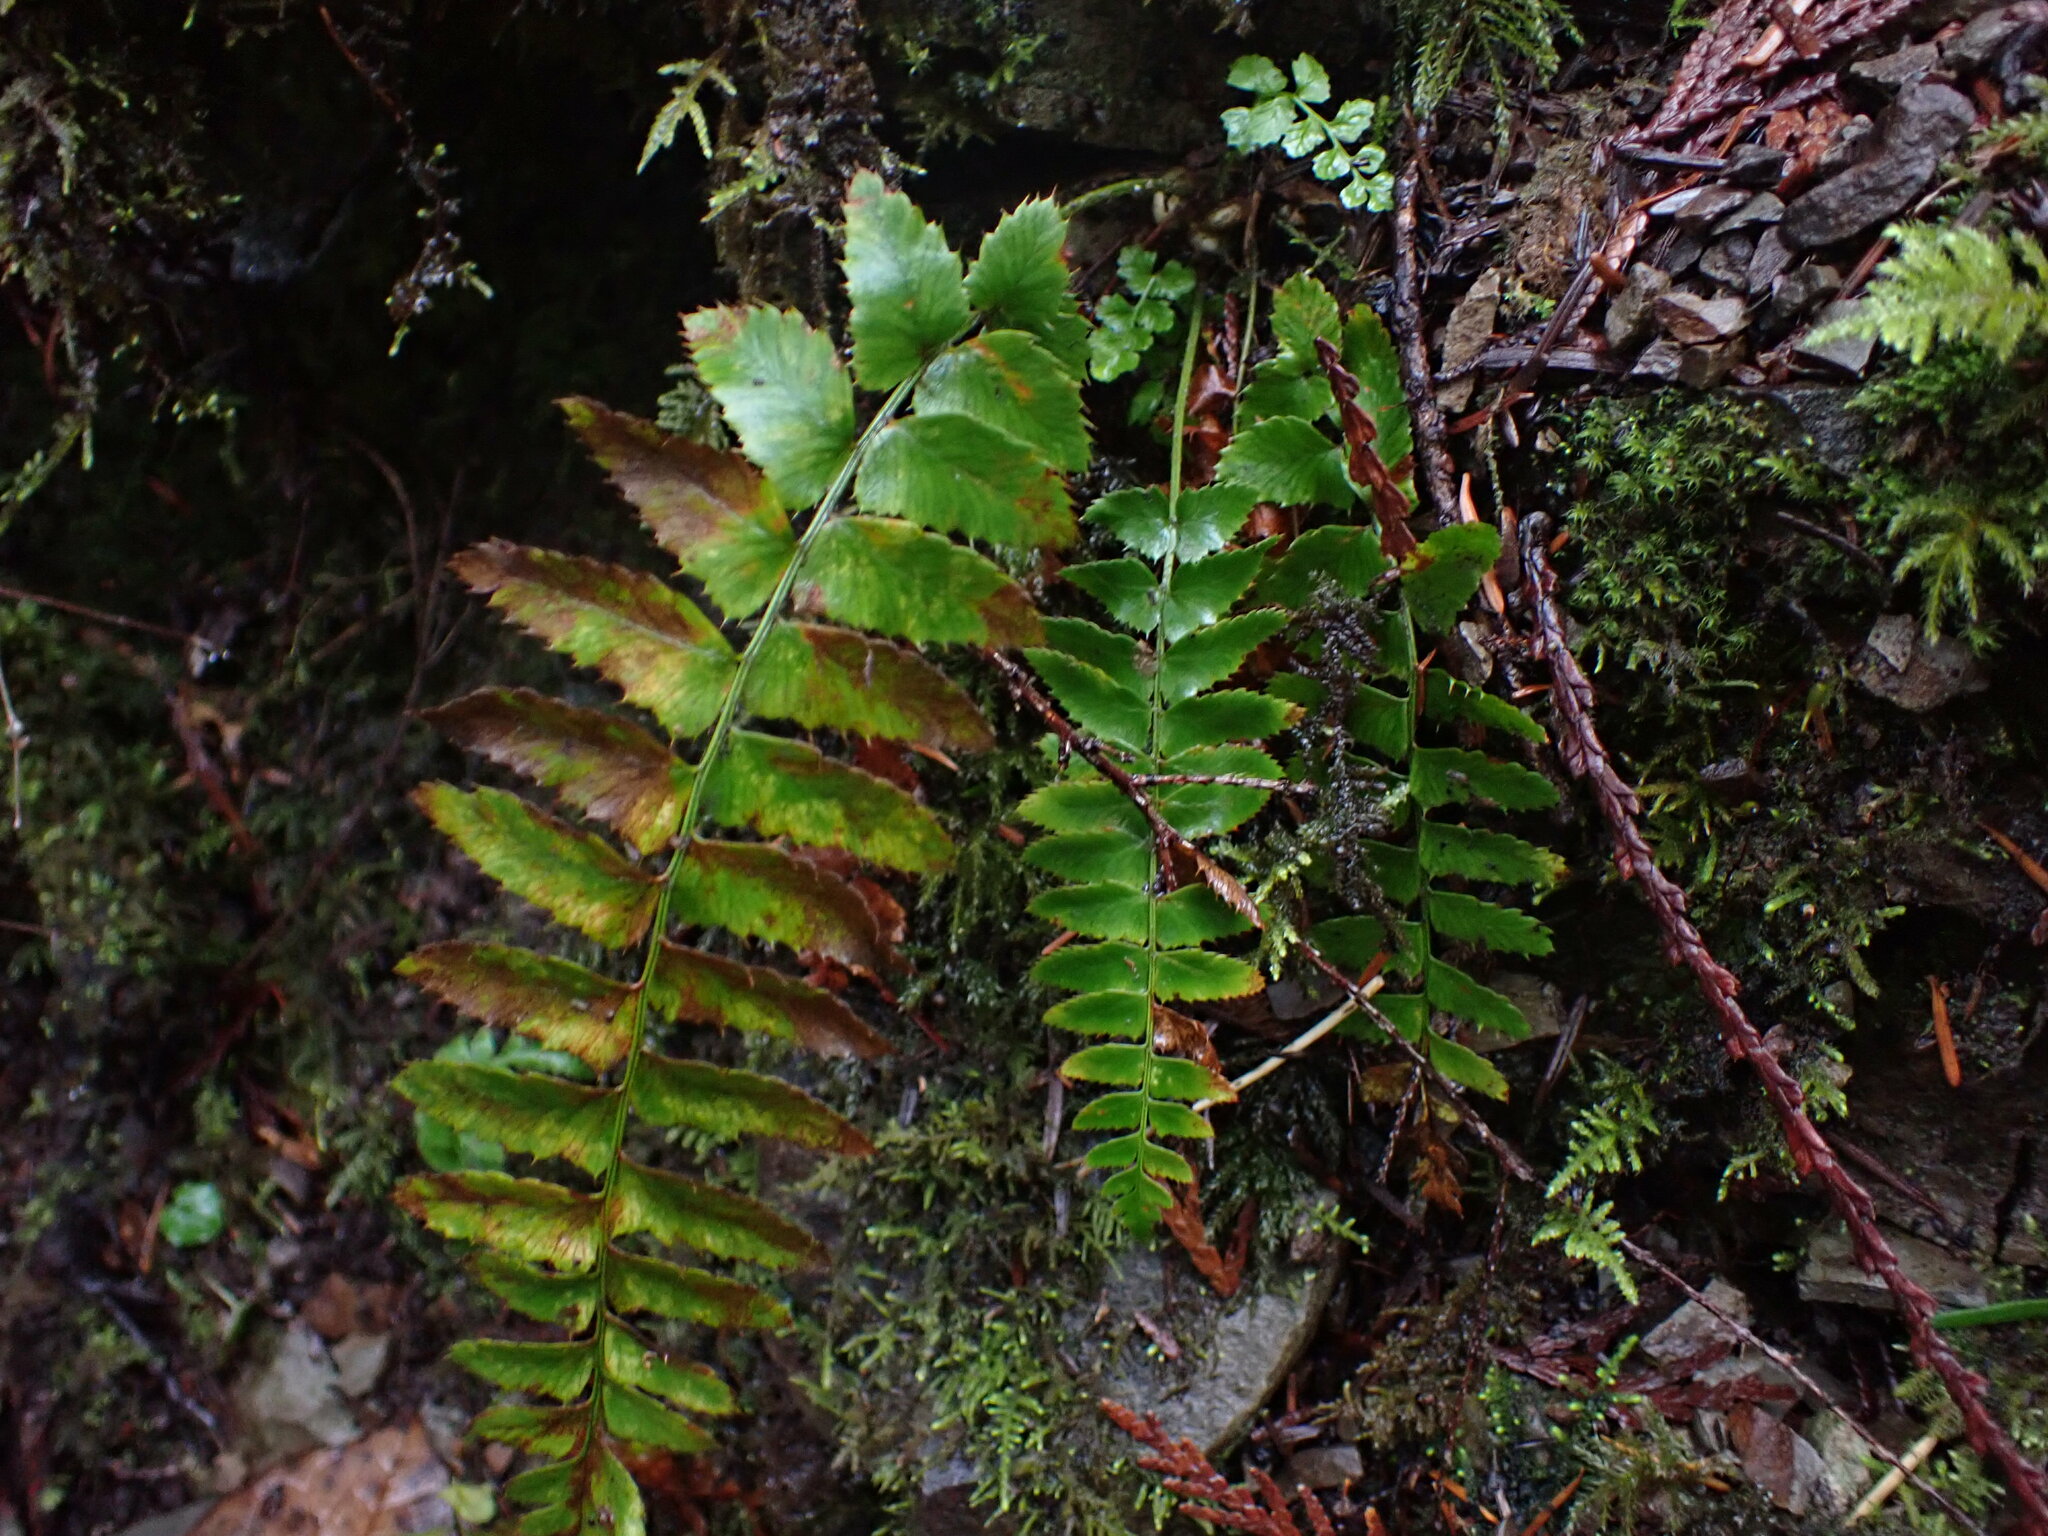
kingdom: Plantae
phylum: Tracheophyta
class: Polypodiopsida
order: Polypodiales
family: Dryopteridaceae
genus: Polystichum
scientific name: Polystichum munitum
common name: Western sword-fern
